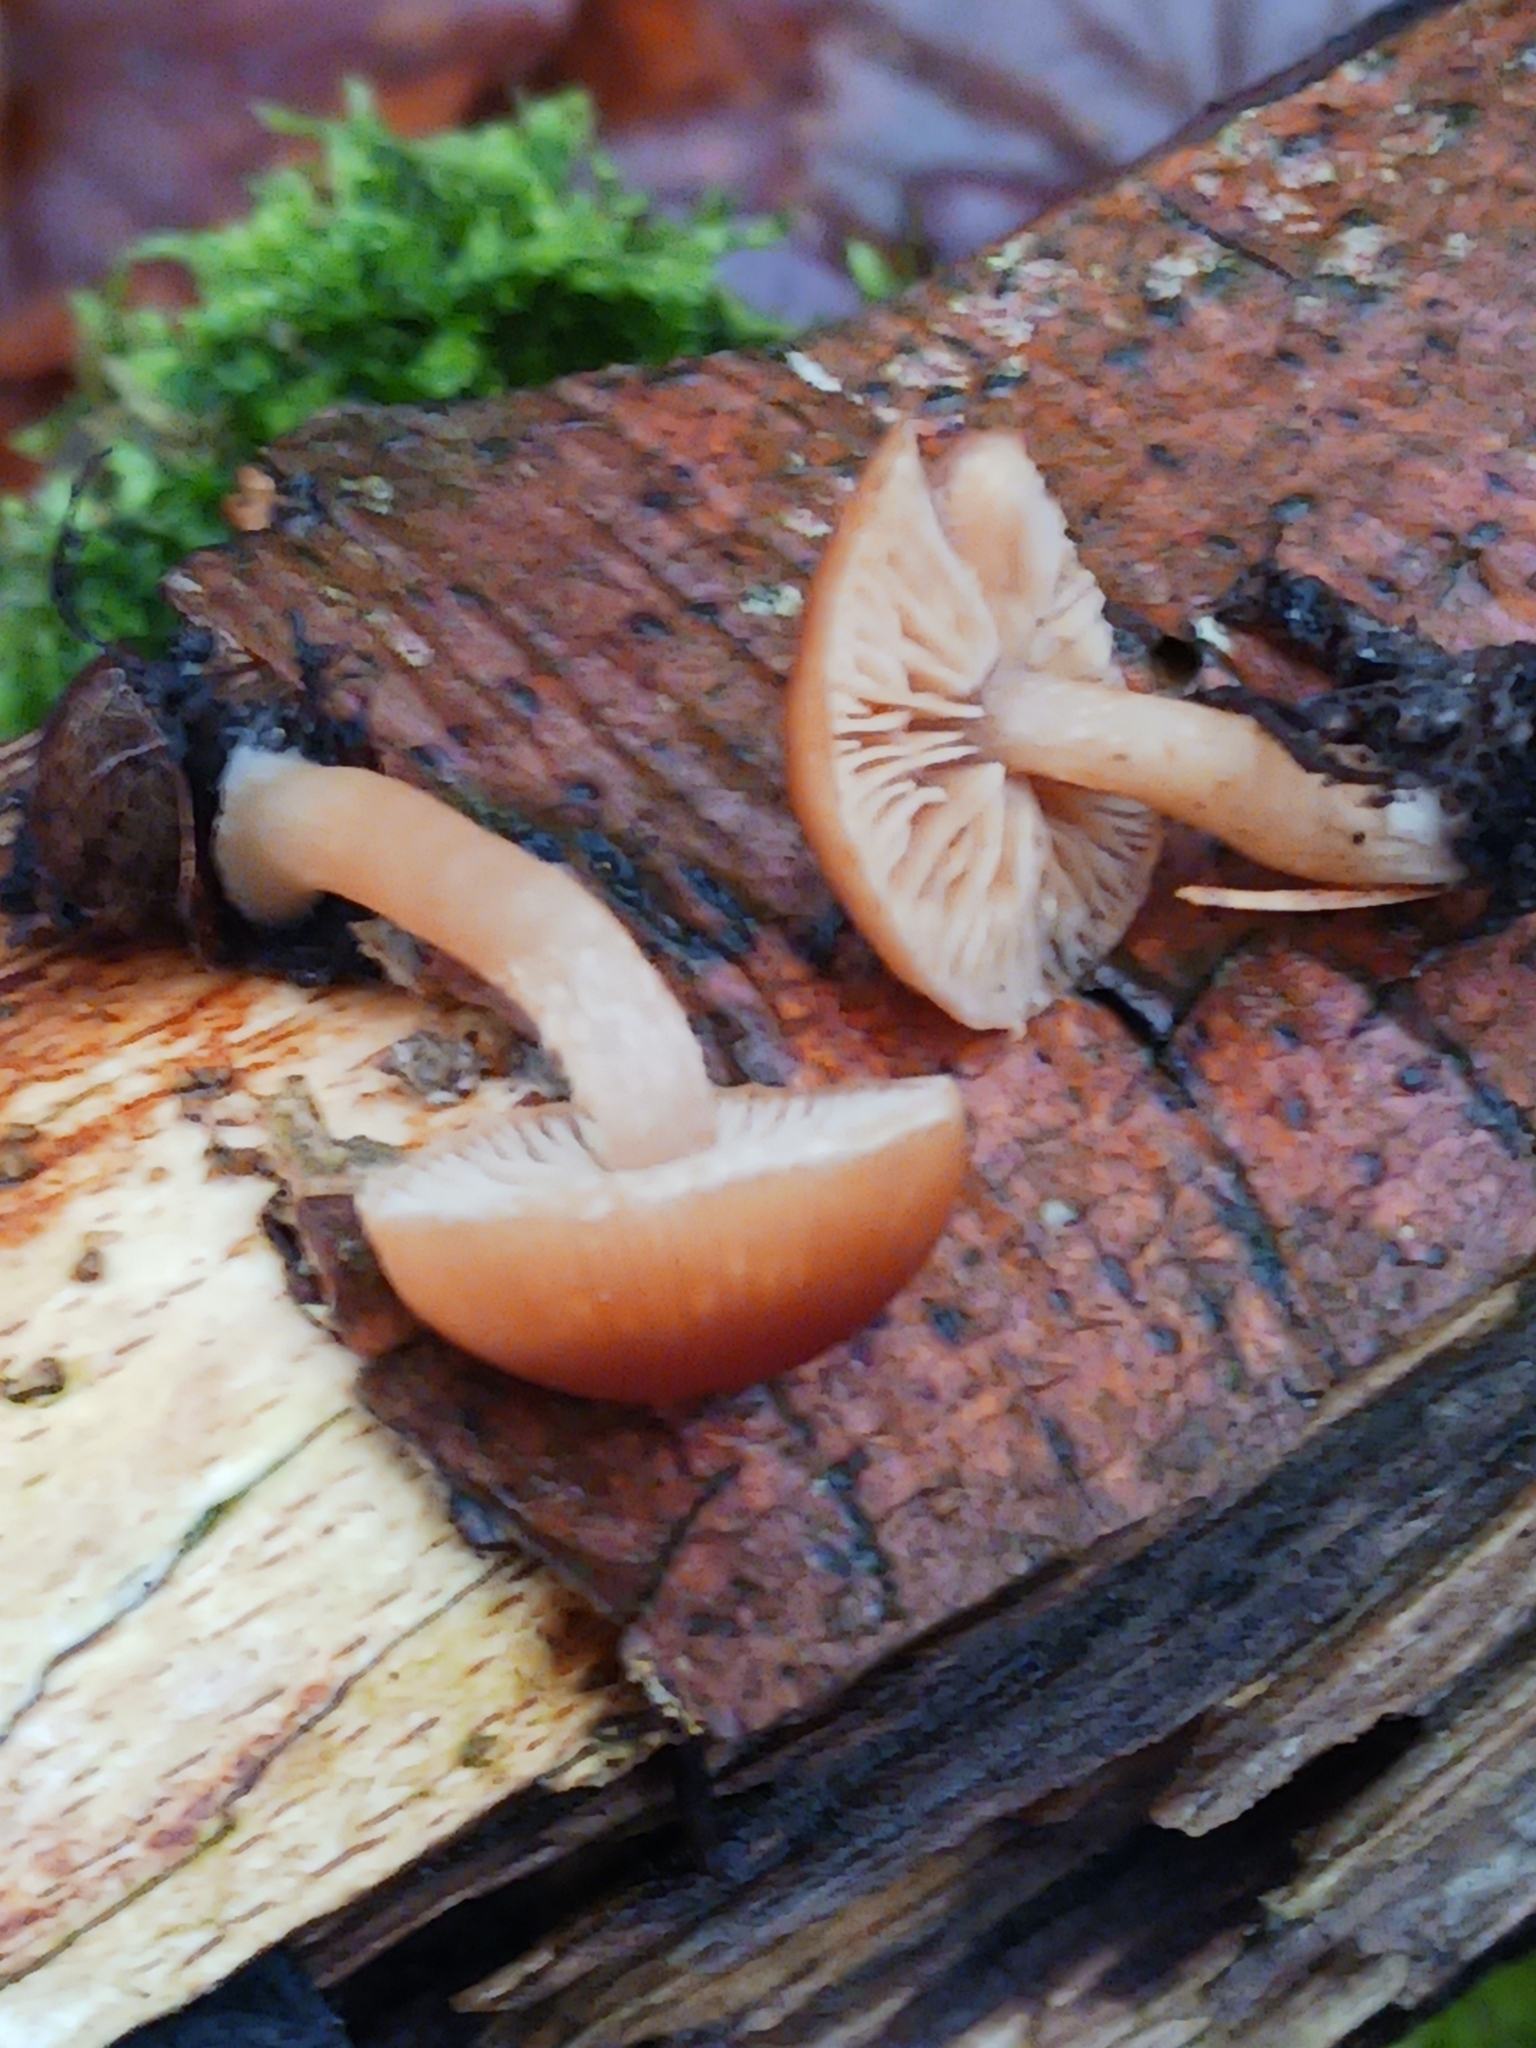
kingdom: Fungi
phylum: Basidiomycota
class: Agaricomycetes
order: Agaricales
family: Tubariaceae
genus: Tubaria
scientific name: Tubaria furfuracea
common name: Scurfy twiglet
